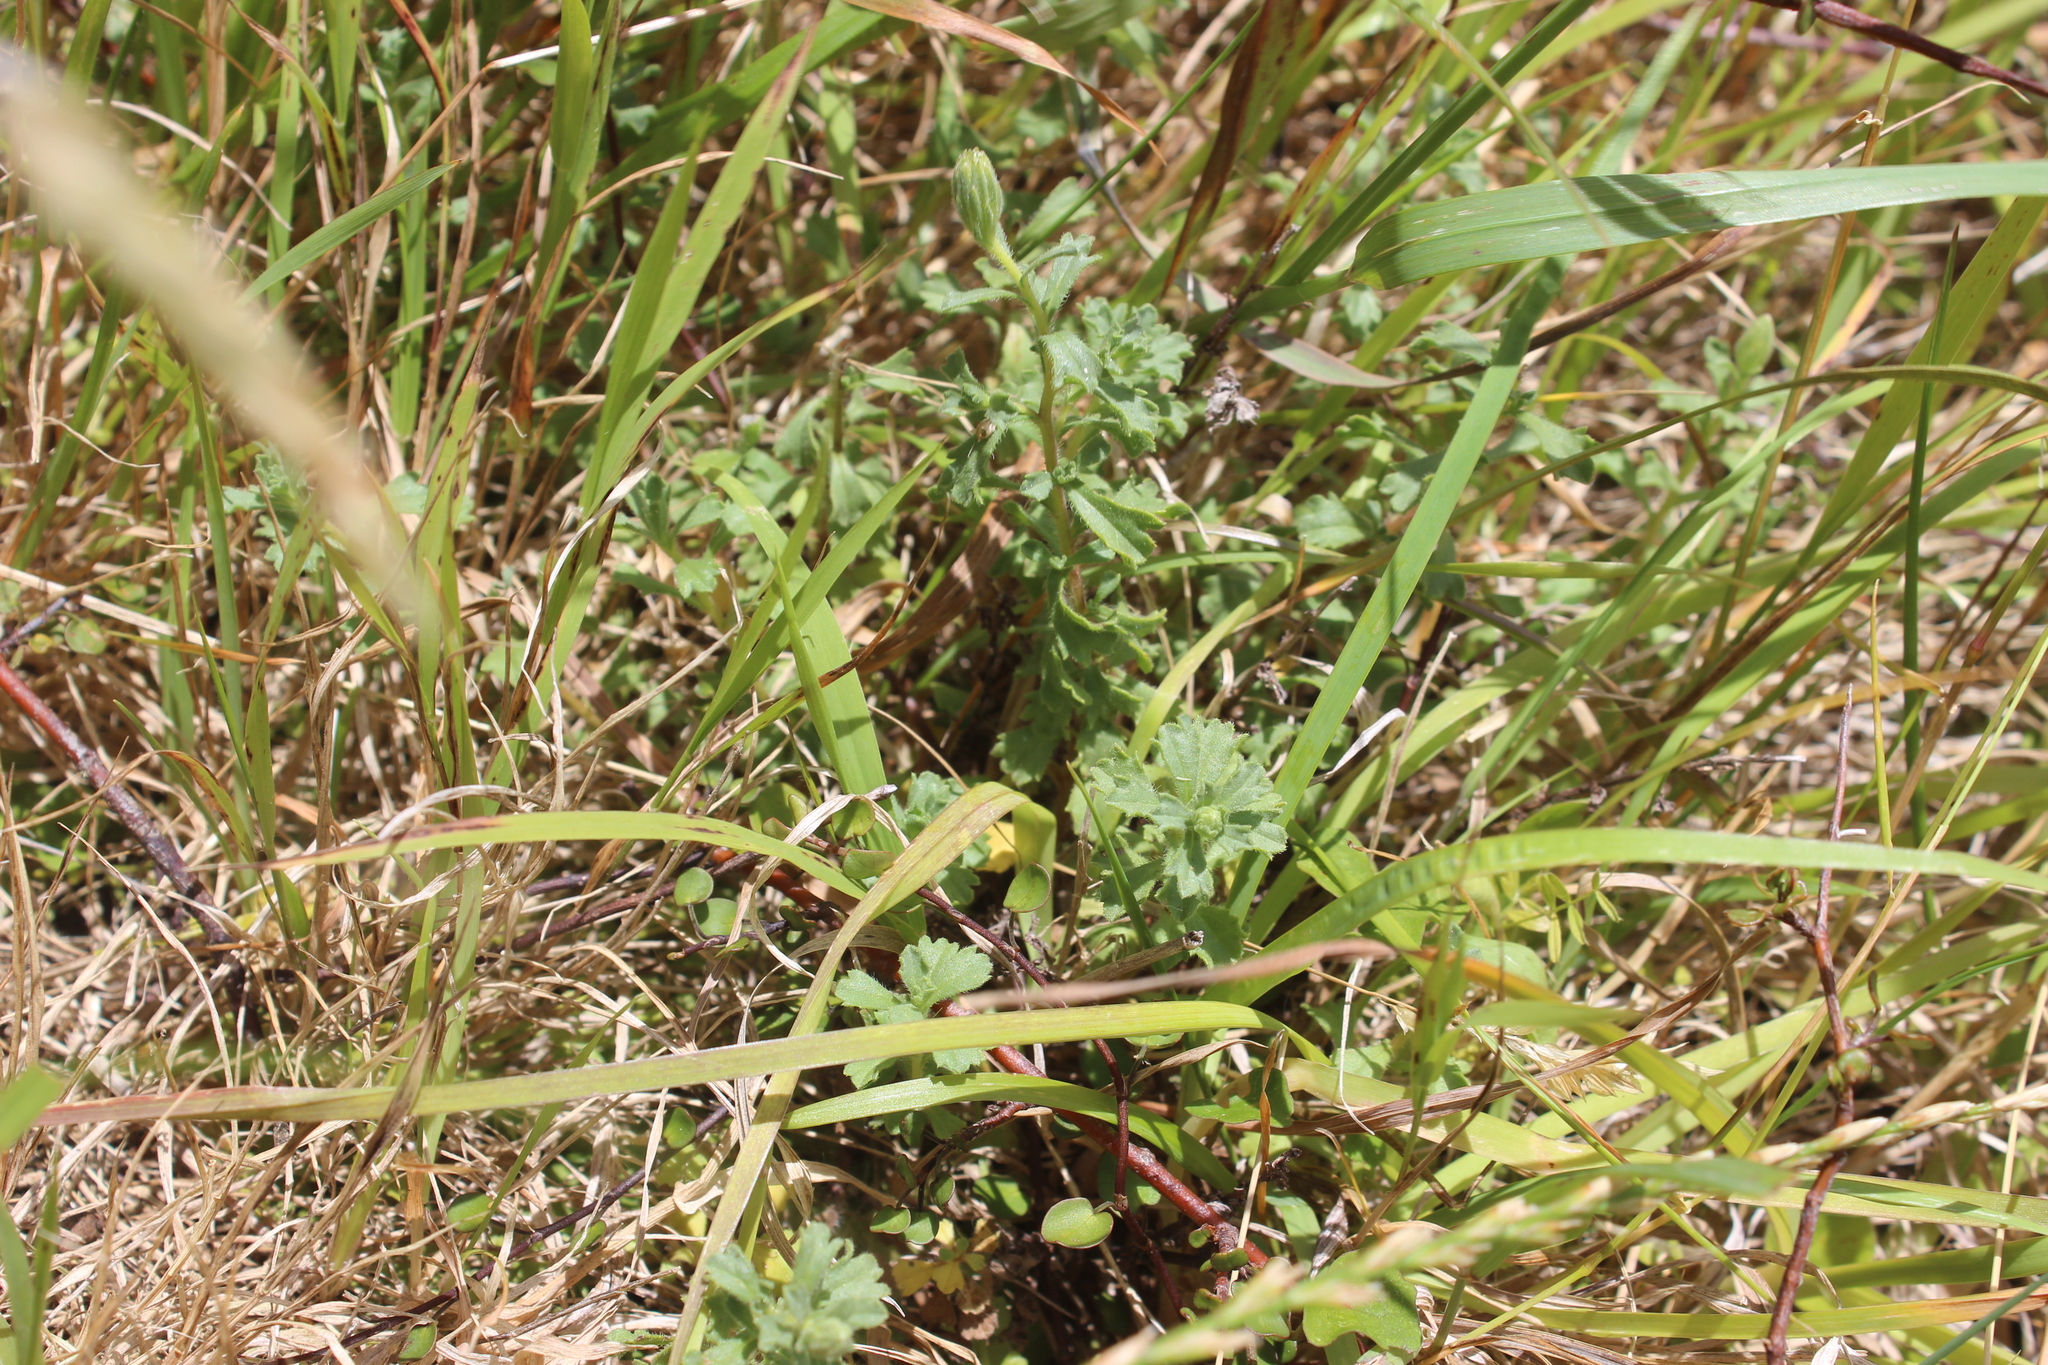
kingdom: Plantae
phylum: Tracheophyta
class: Magnoliopsida
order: Asterales
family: Asteraceae
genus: Vittadinia
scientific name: Vittadinia australis
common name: White fuzzweed
